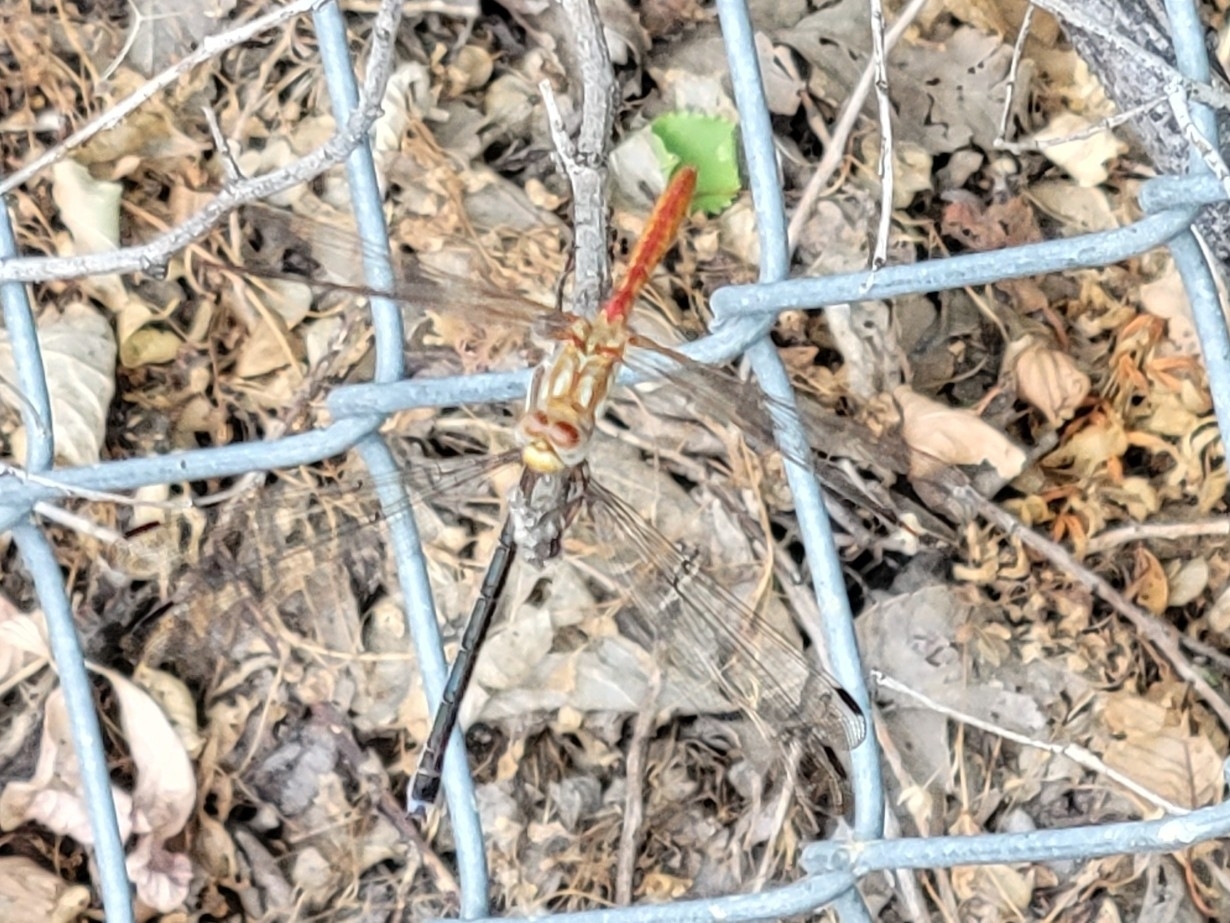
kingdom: Animalia
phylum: Arthropoda
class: Insecta
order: Odonata
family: Libellulidae
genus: Sympetrum
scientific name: Sympetrum pallipes
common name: Striped meadowhawk
